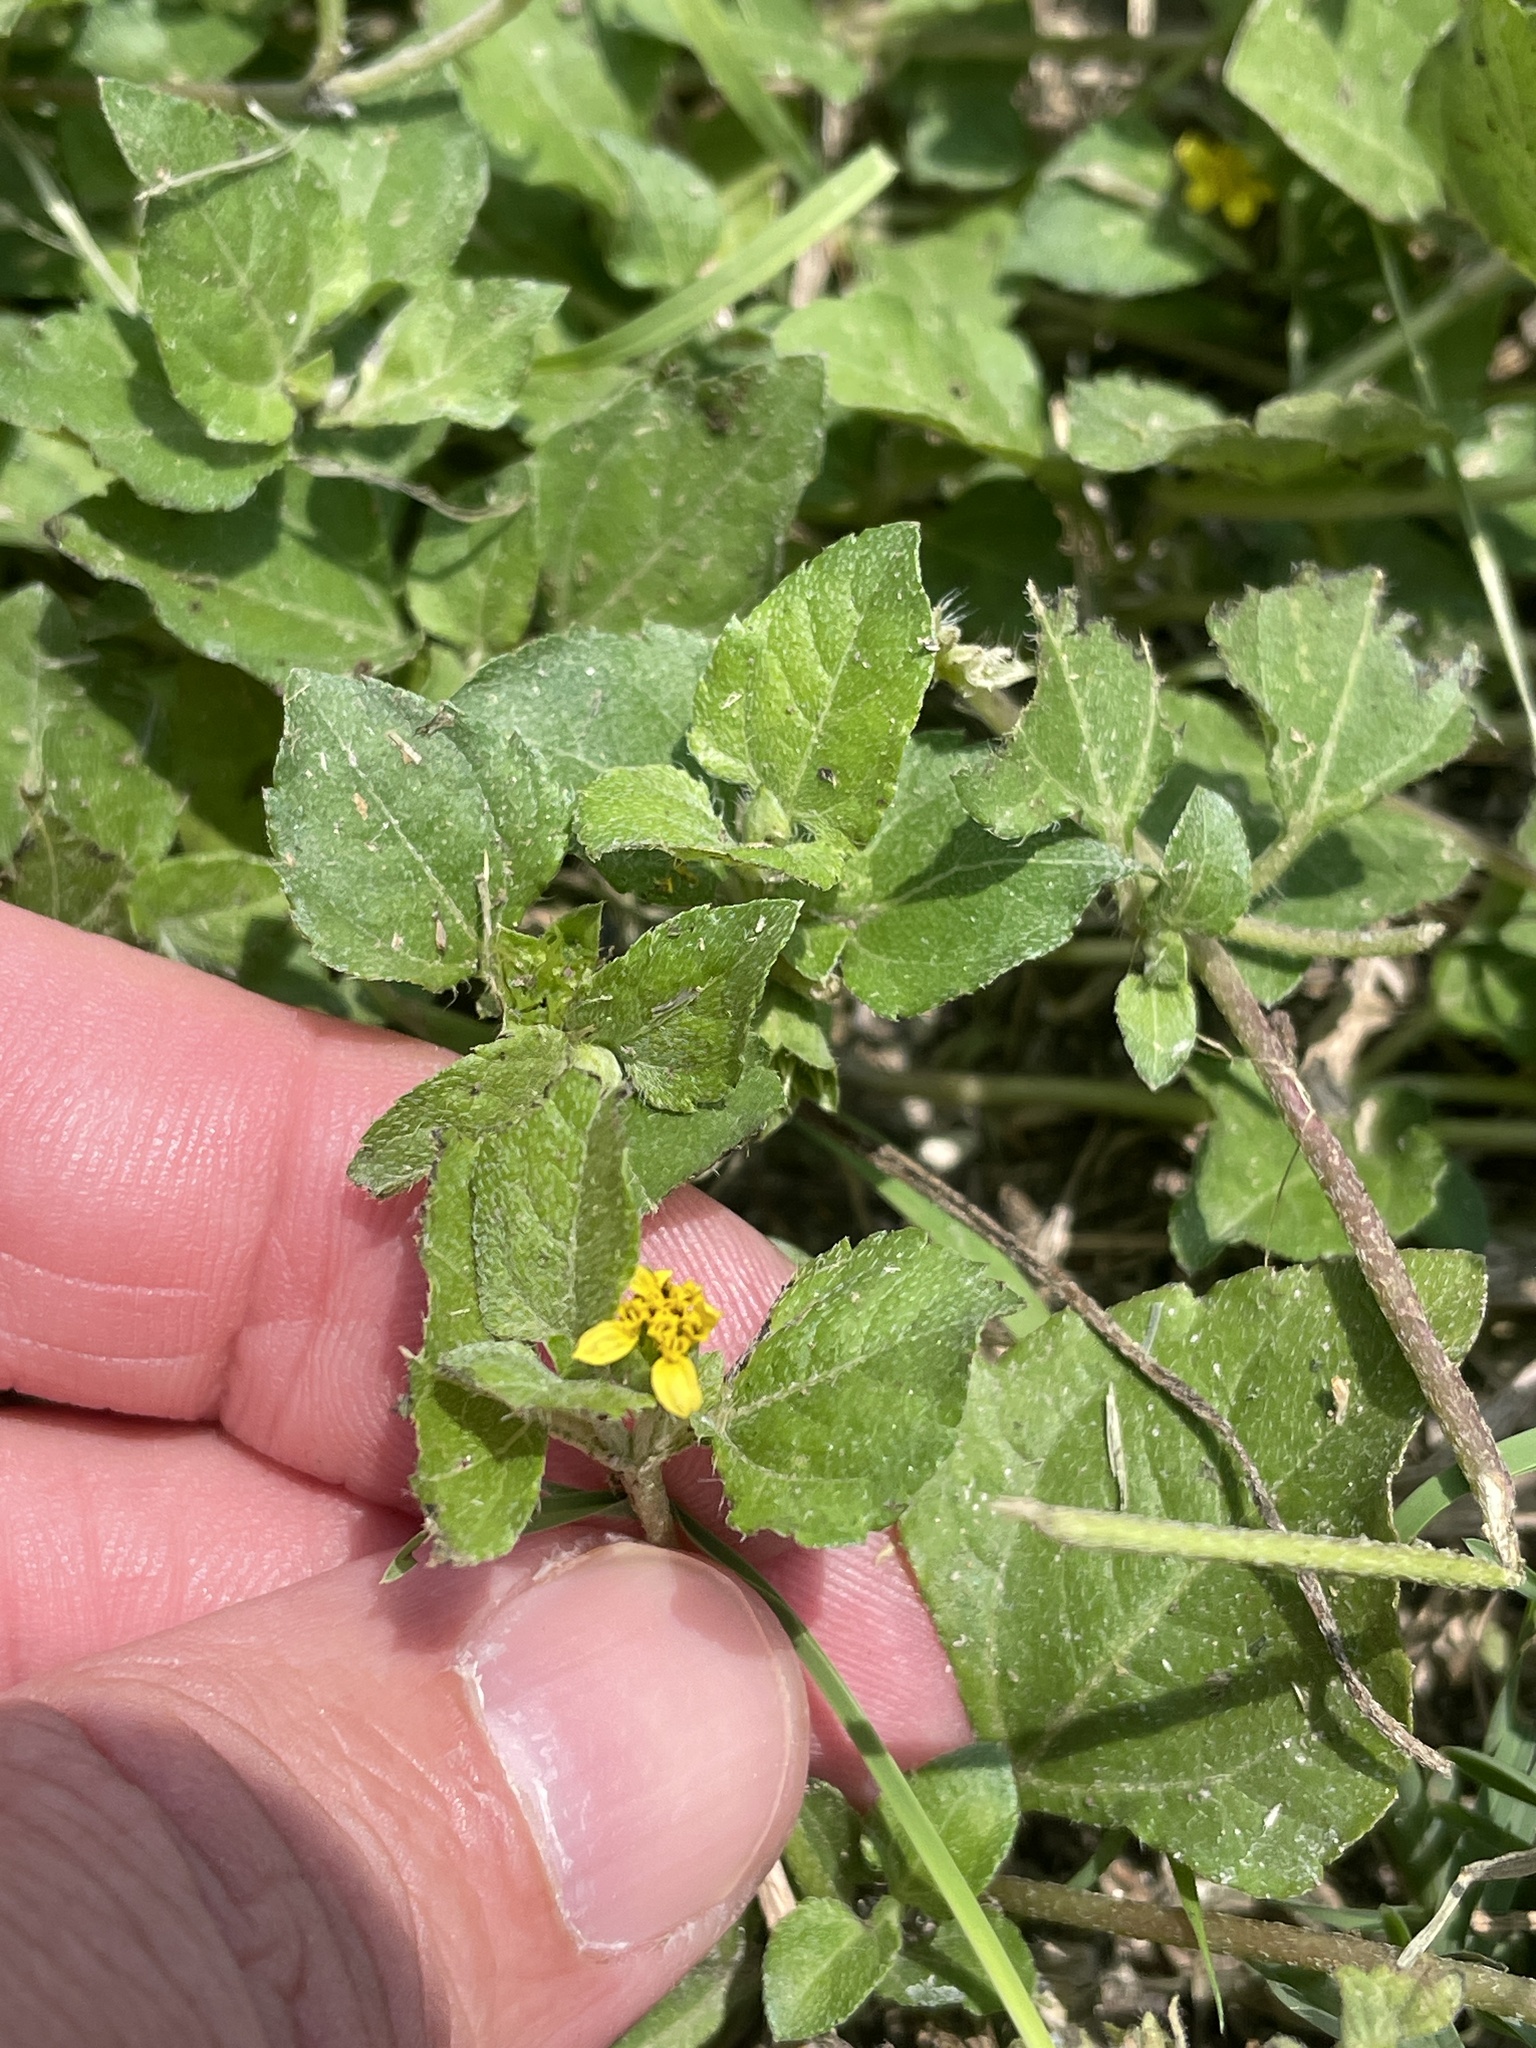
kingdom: Plantae
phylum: Tracheophyta
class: Magnoliopsida
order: Asterales
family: Asteraceae
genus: Calyptocarpus
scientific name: Calyptocarpus vialis
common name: Straggler daisy
